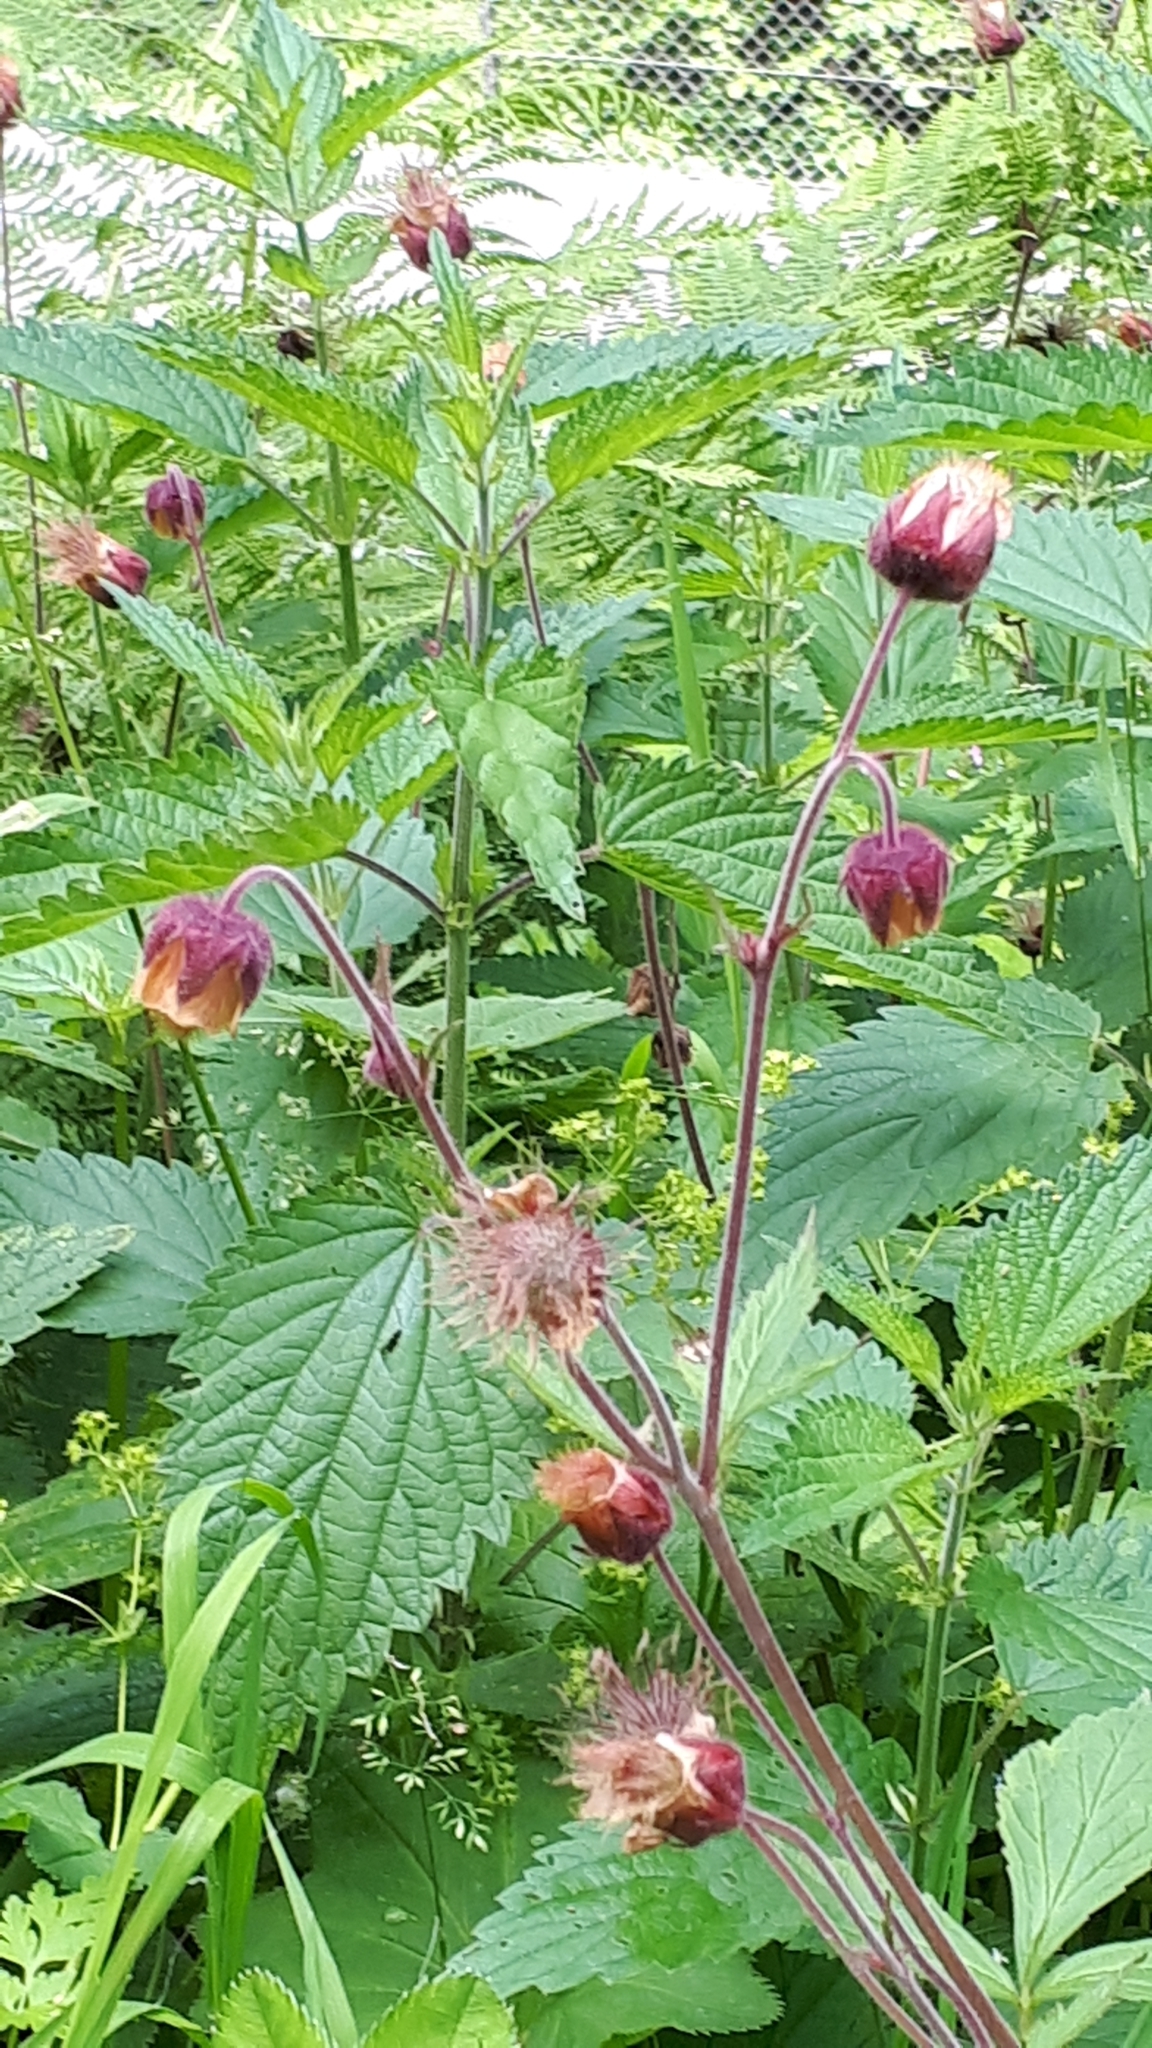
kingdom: Plantae
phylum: Tracheophyta
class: Magnoliopsida
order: Rosales
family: Rosaceae
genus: Geum
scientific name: Geum rivale
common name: Water avens
